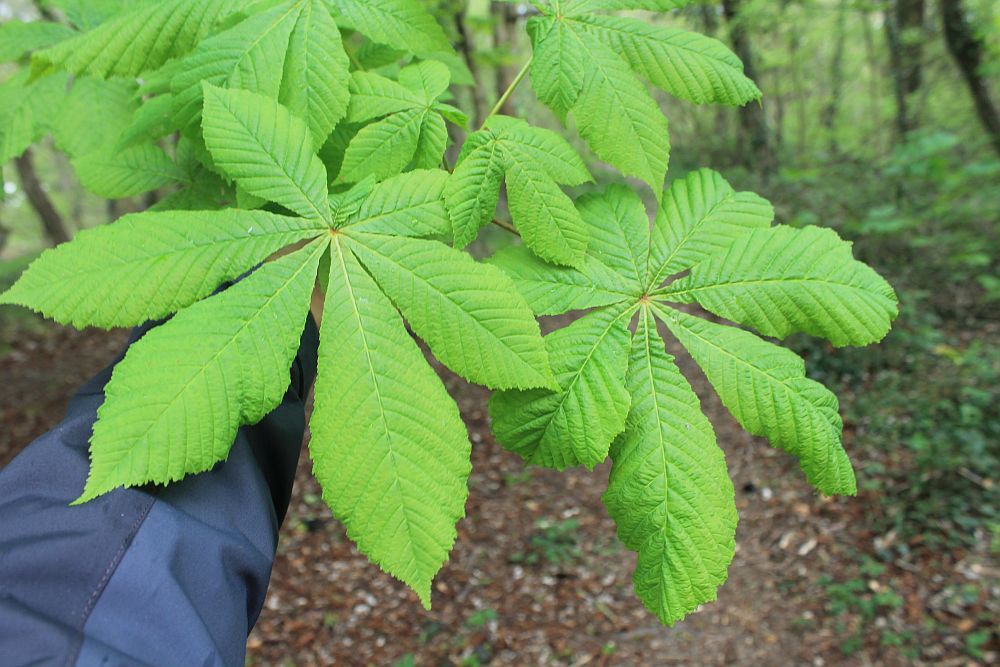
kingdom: Plantae
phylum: Tracheophyta
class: Magnoliopsida
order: Sapindales
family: Sapindaceae
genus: Aesculus
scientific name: Aesculus hippocastanum
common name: Horse-chestnut
